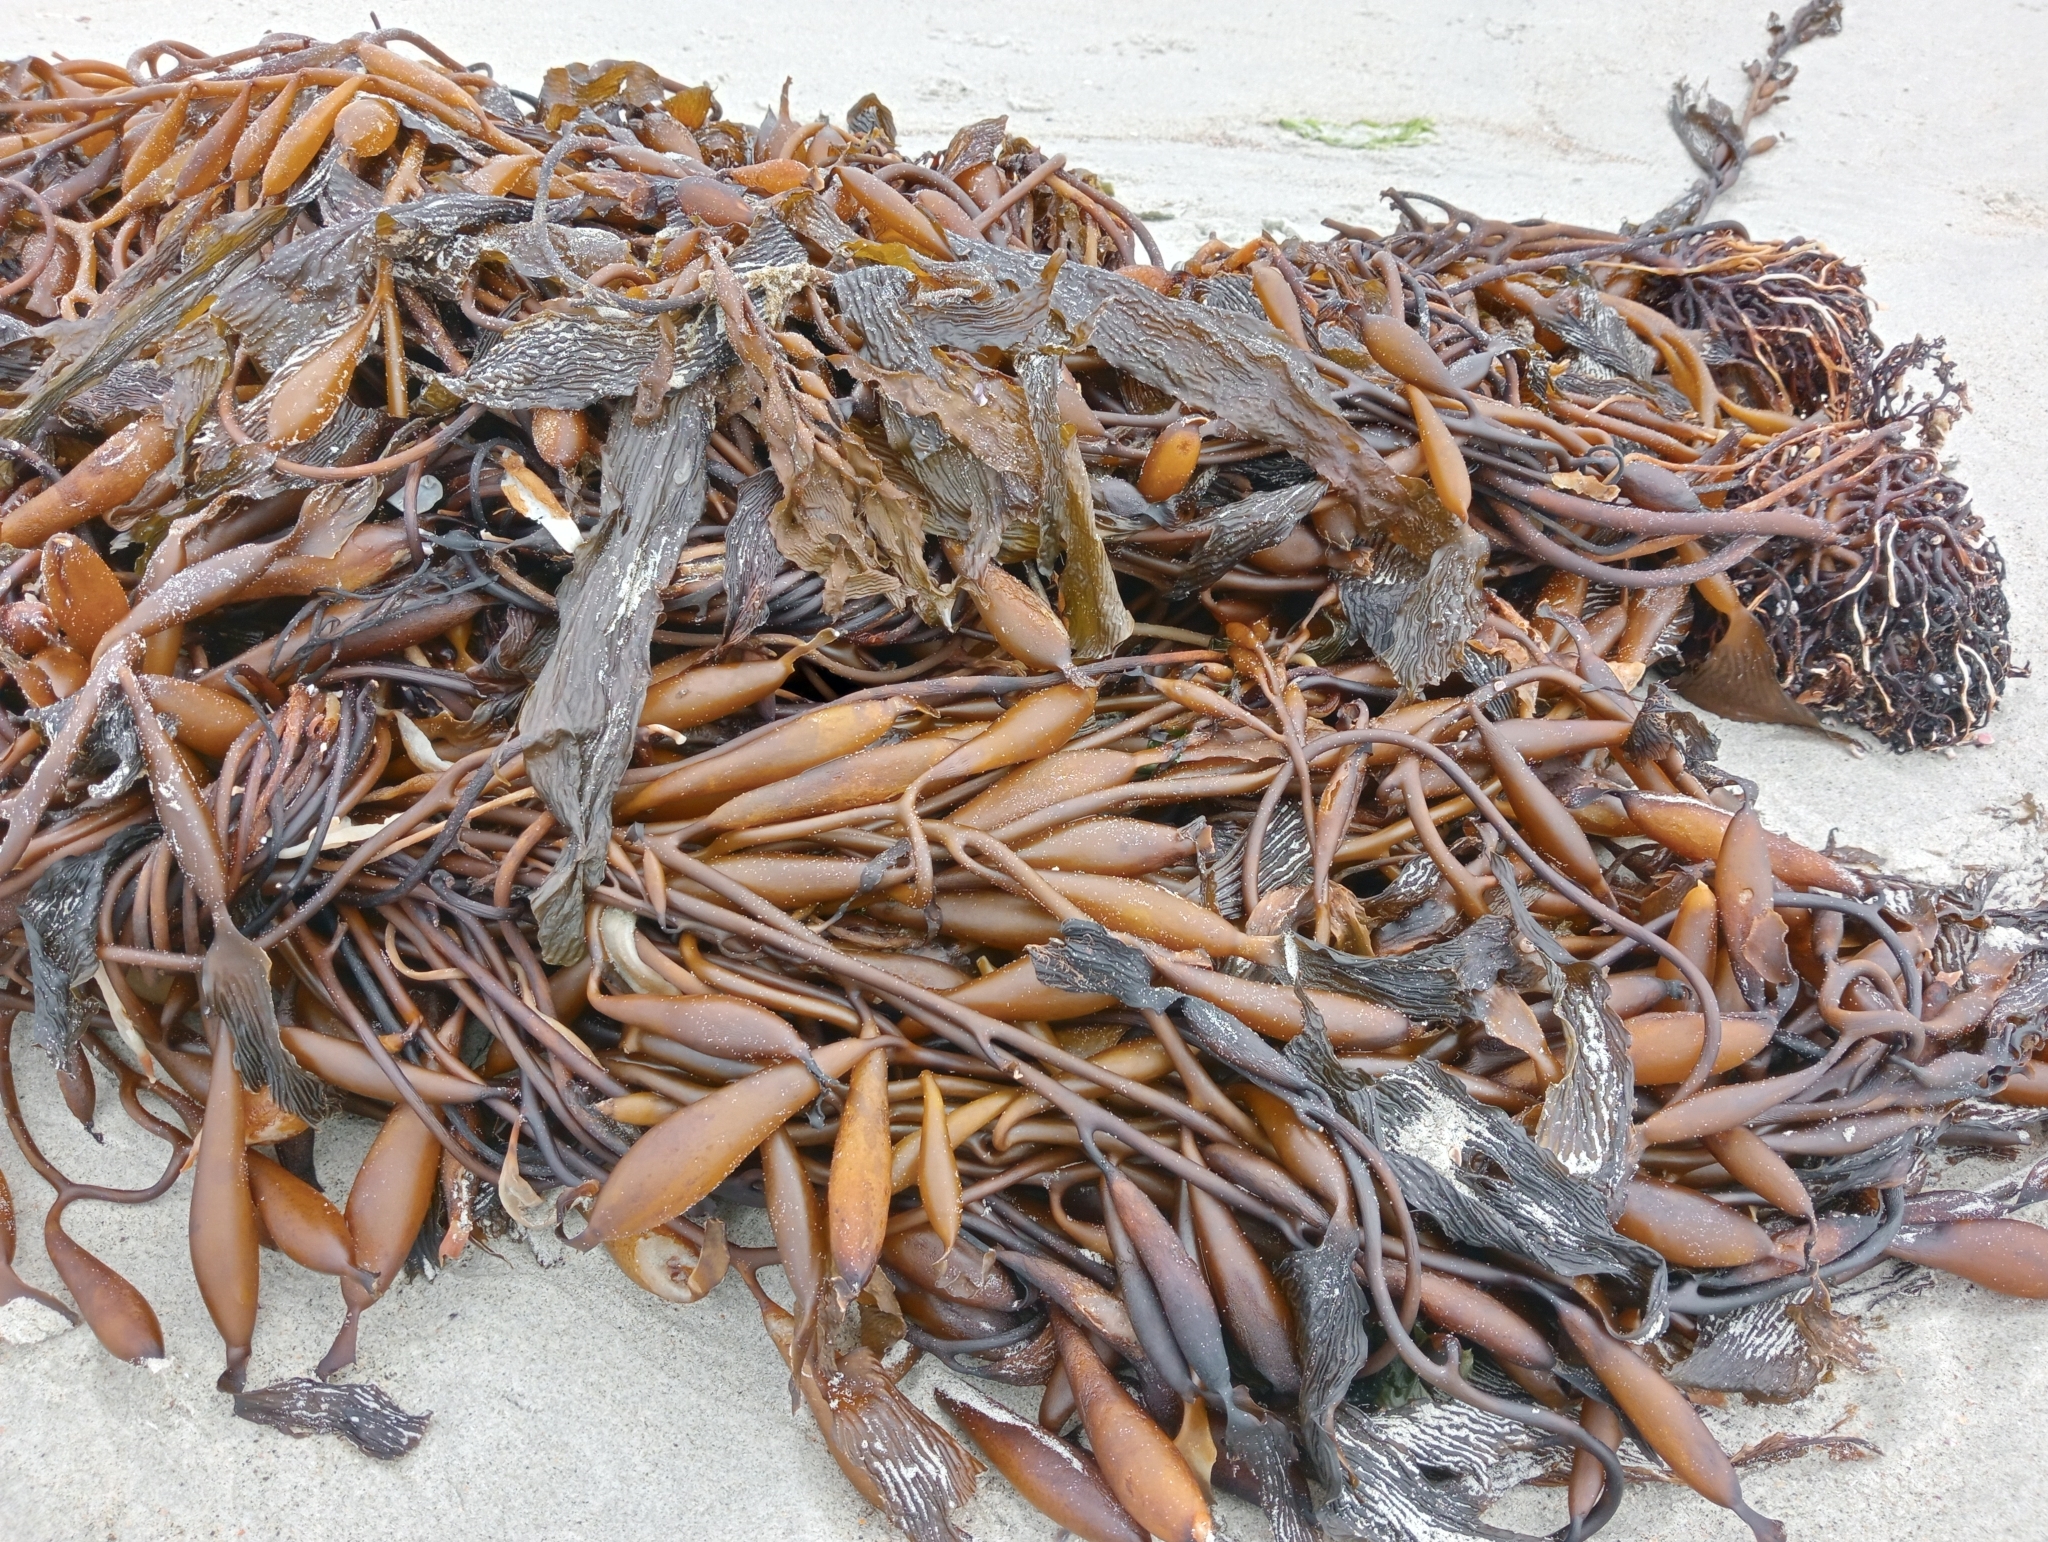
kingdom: Chromista
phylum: Ochrophyta
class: Phaeophyceae
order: Laminariales
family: Laminariaceae
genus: Macrocystis
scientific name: Macrocystis pyrifera
